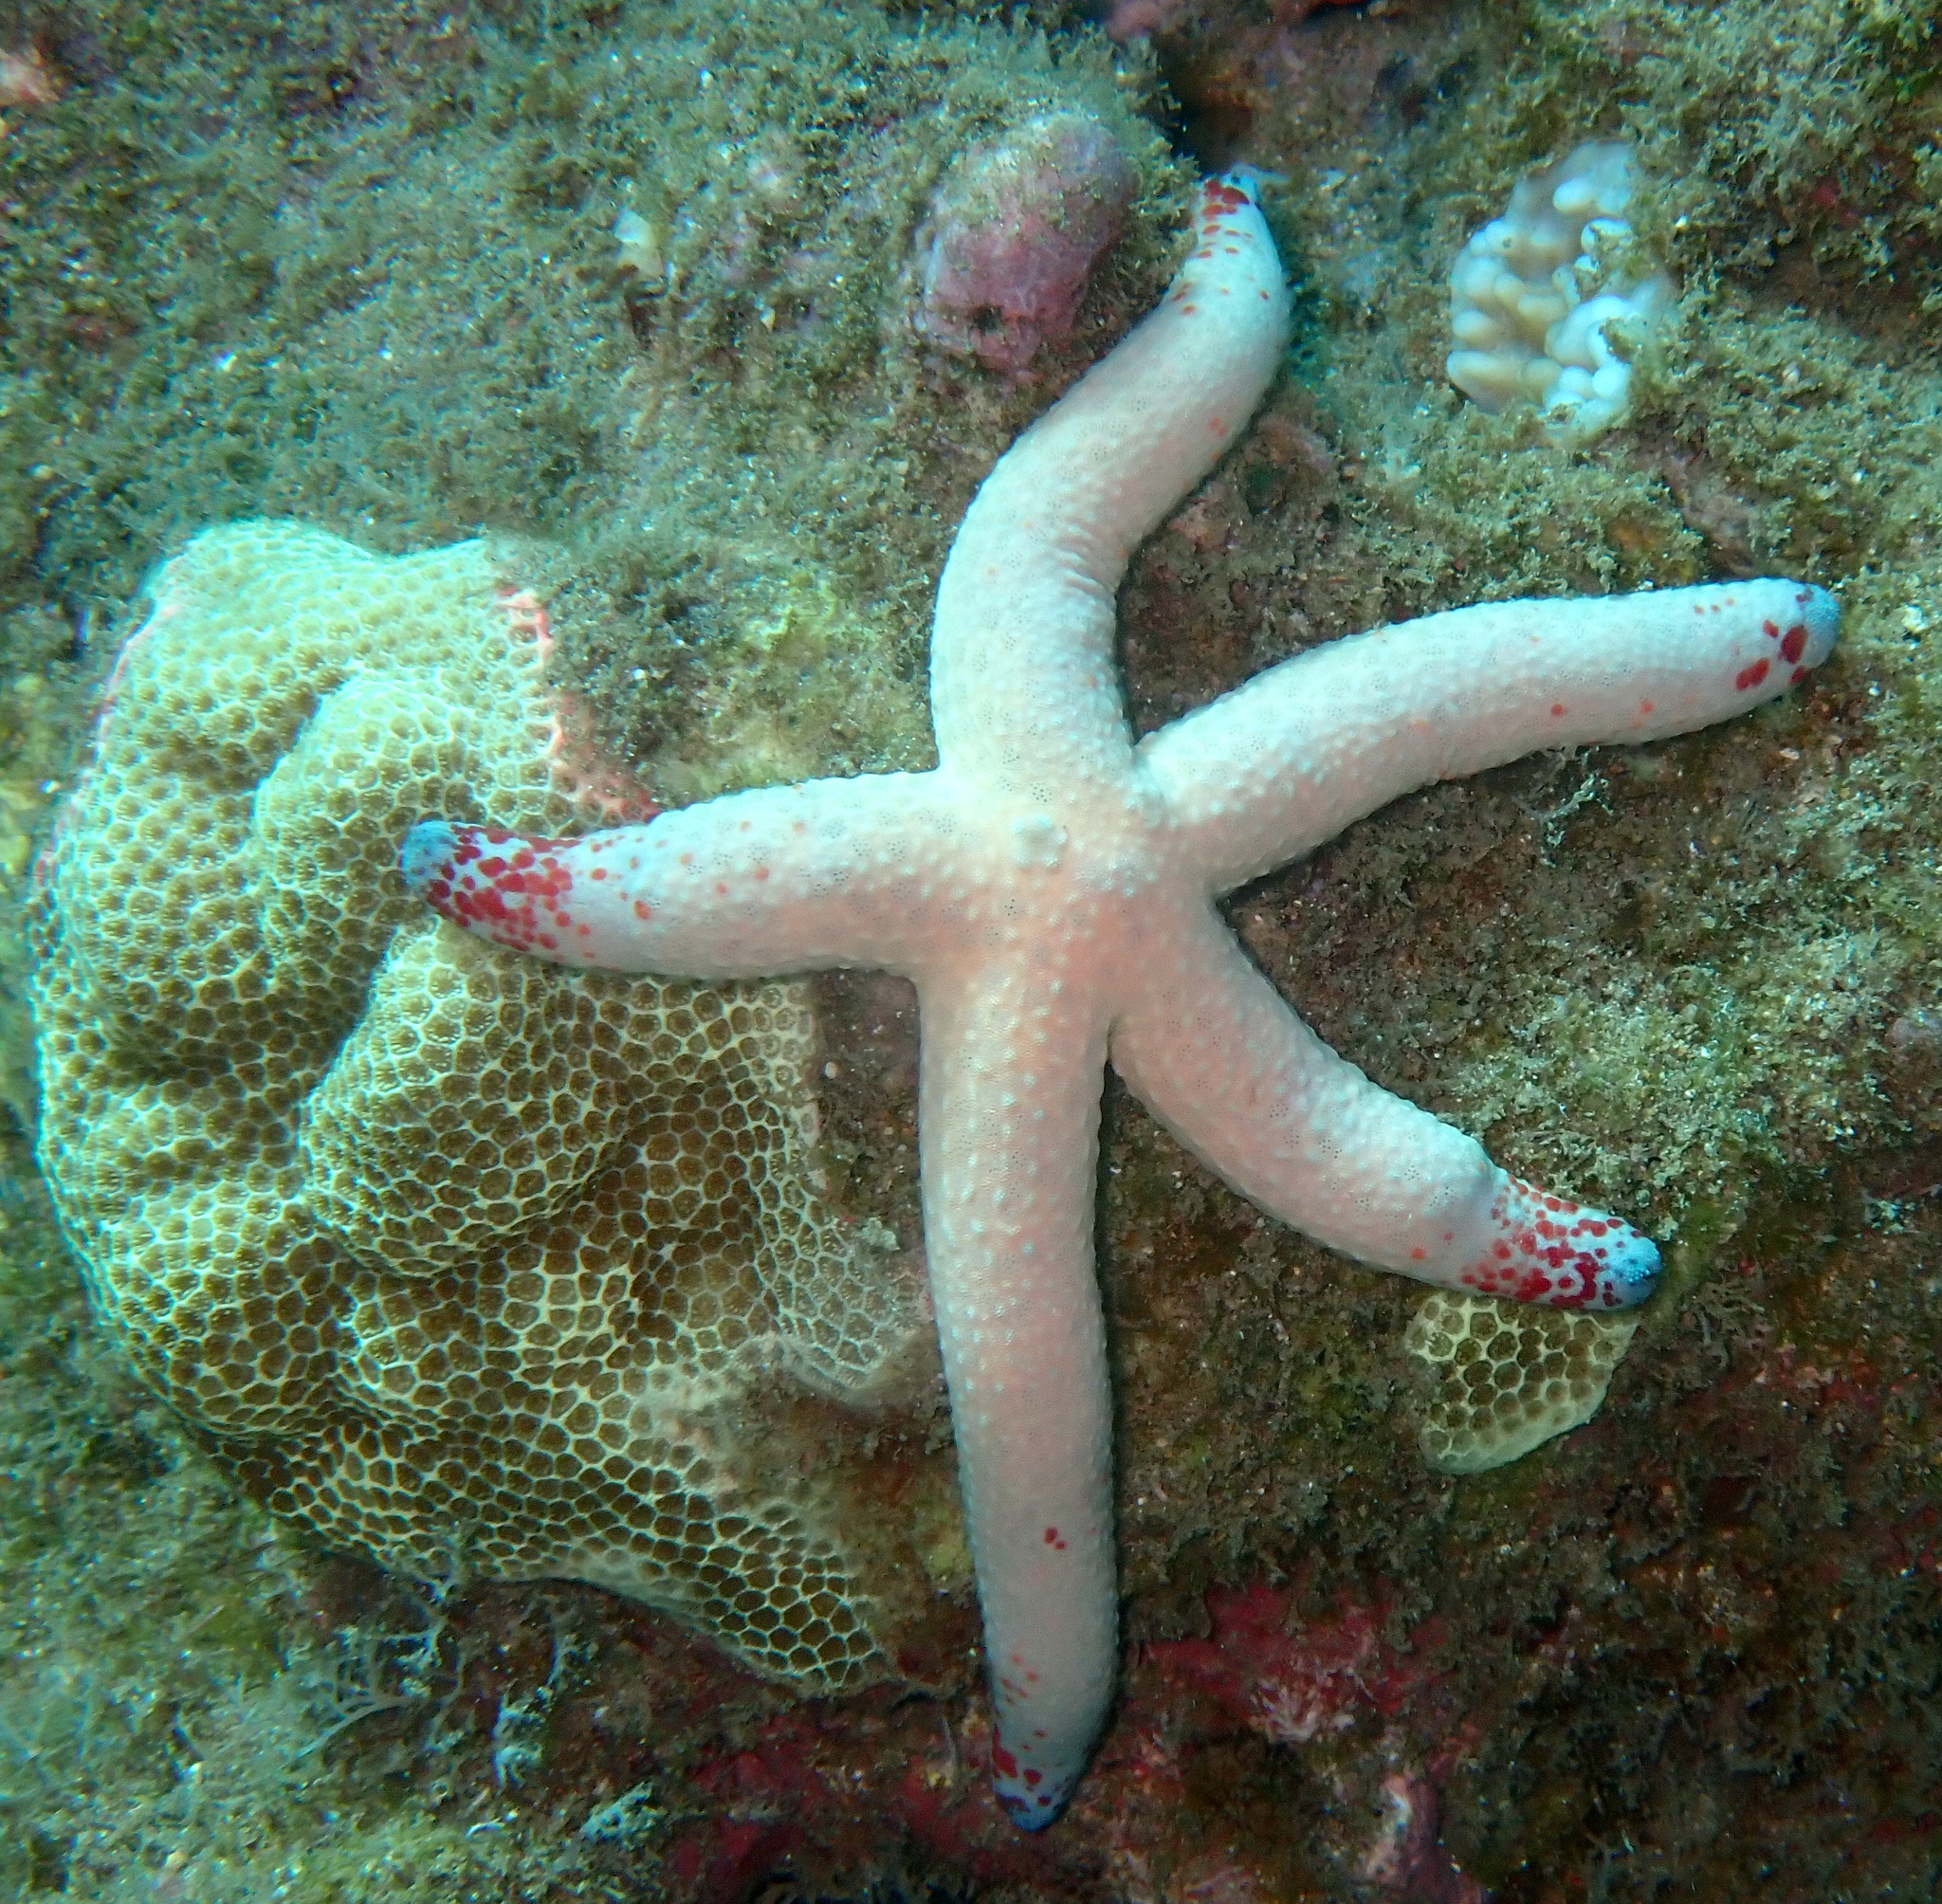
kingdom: Animalia
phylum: Echinodermata
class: Asteroidea
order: Valvatida
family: Ophidiasteridae
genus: Linckia
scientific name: Linckia multifora
